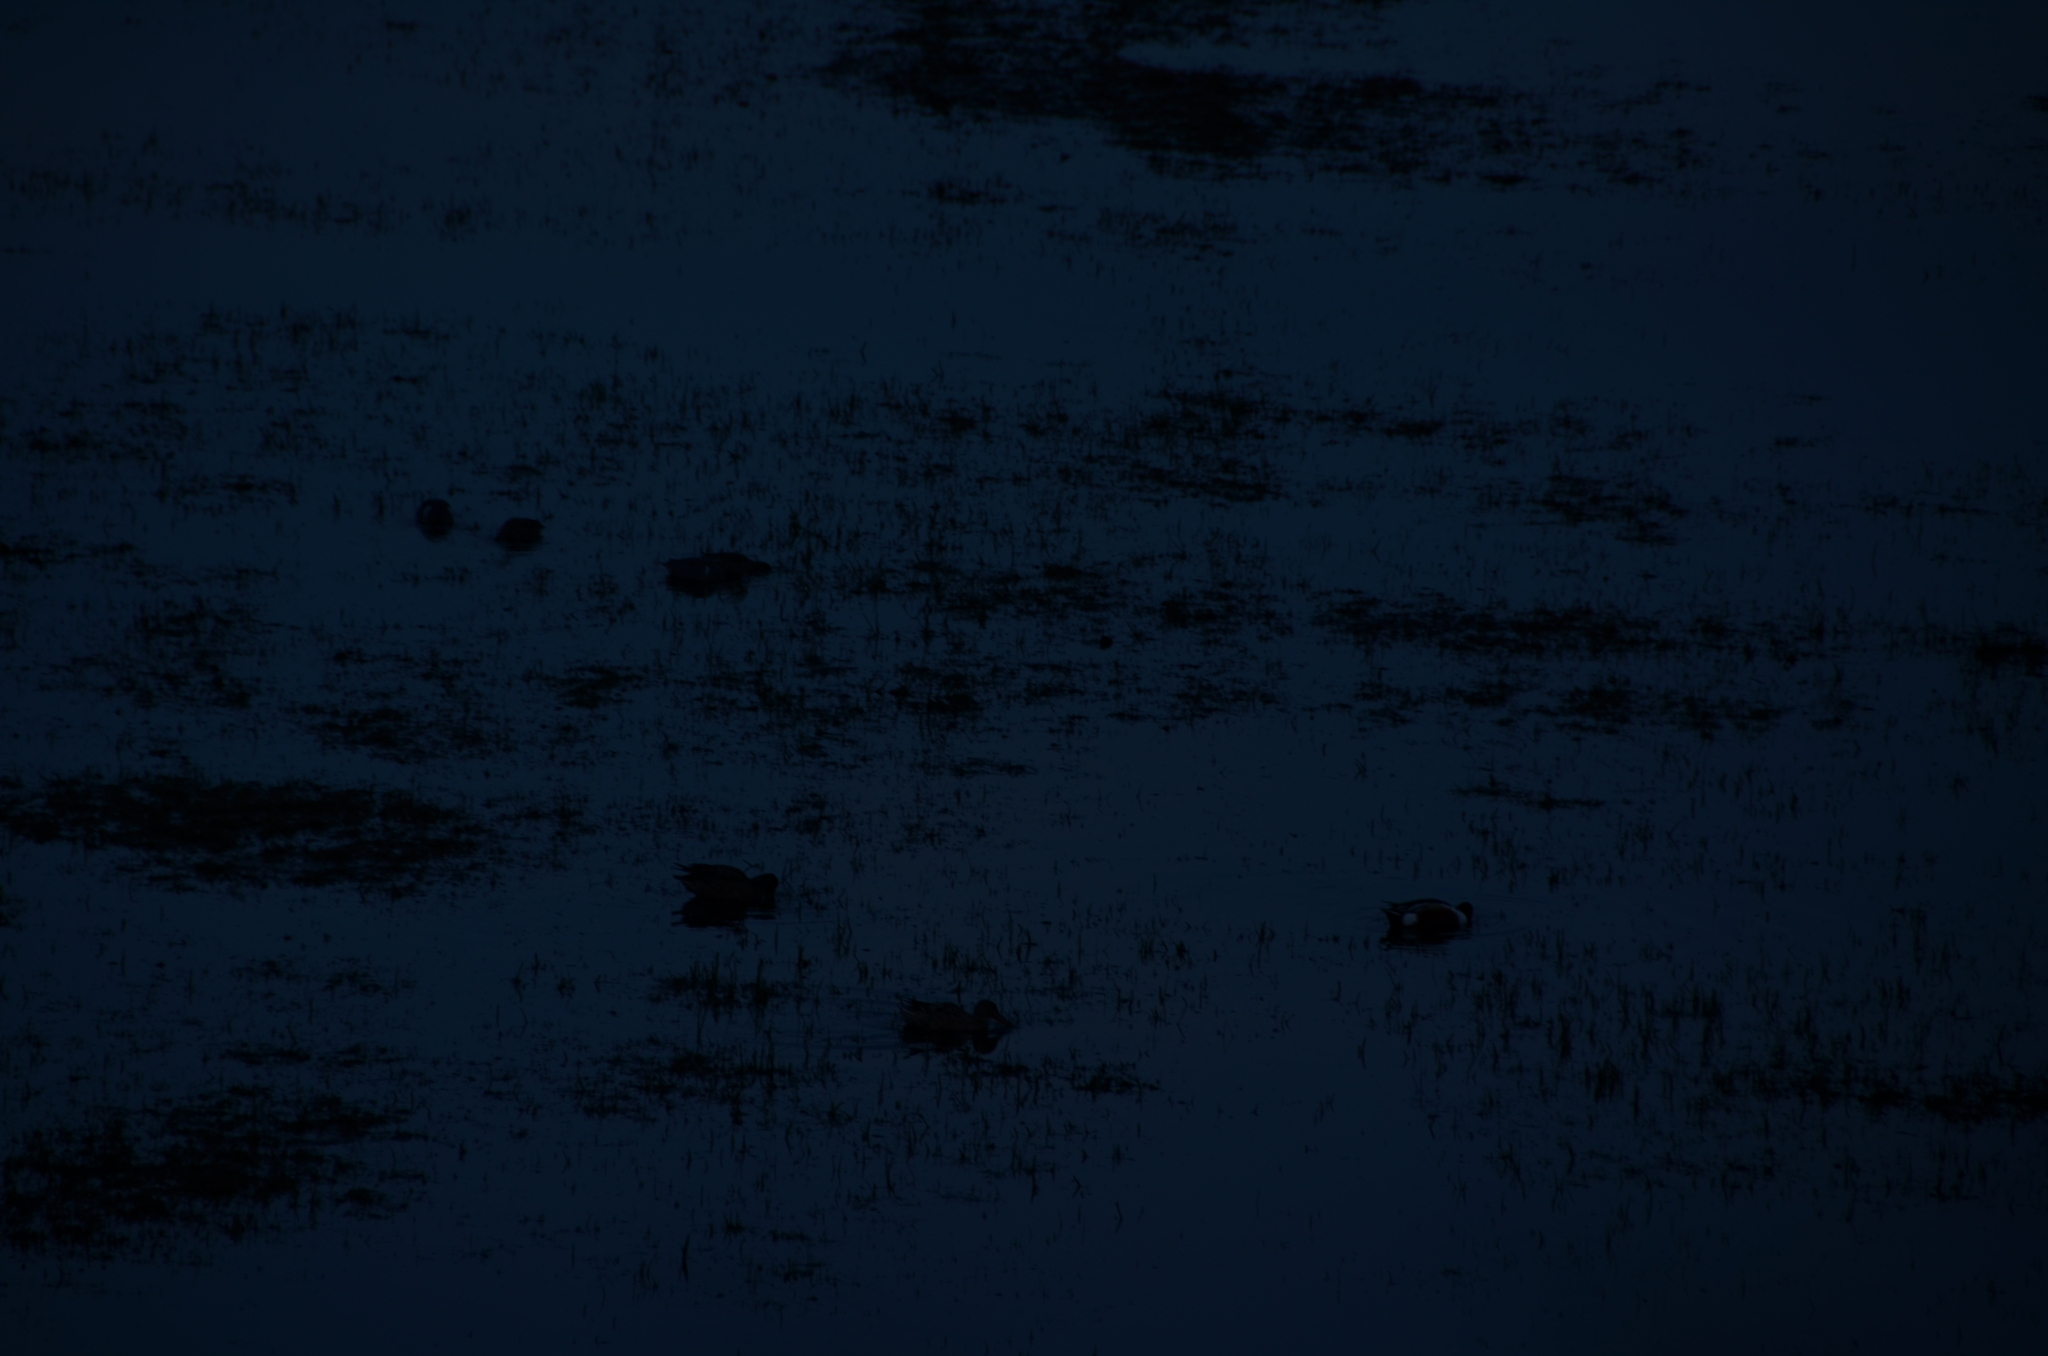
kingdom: Animalia
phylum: Chordata
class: Aves
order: Anseriformes
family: Anatidae
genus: Spatula
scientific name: Spatula clypeata
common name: Northern shoveler
